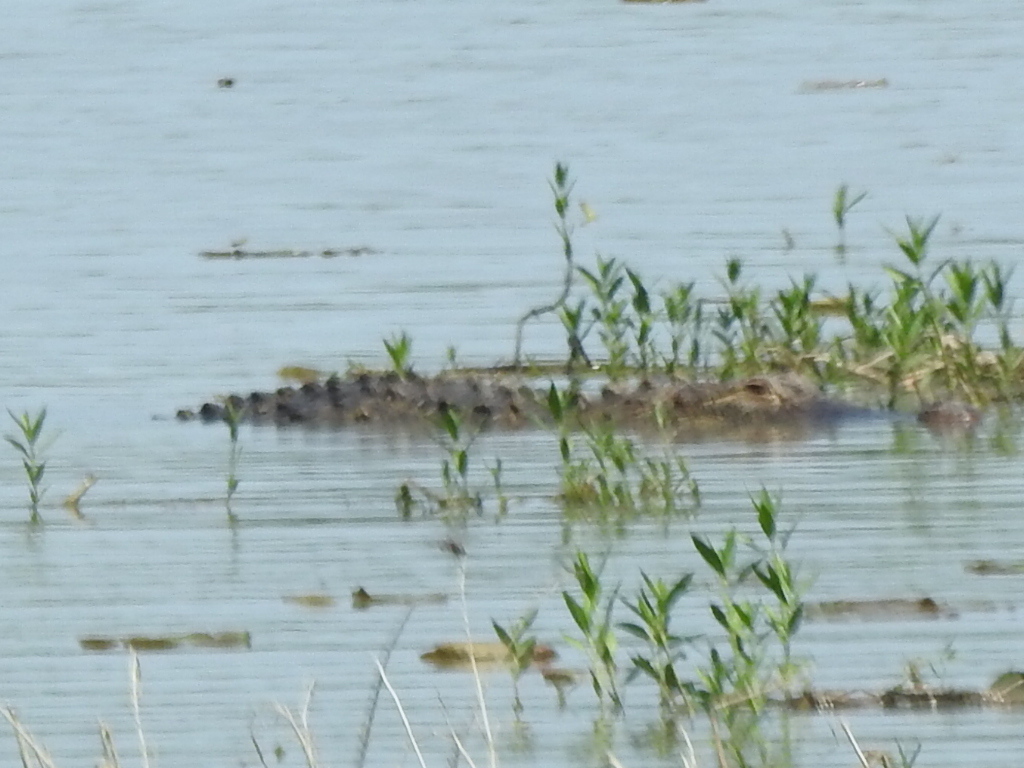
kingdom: Animalia
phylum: Chordata
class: Crocodylia
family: Alligatoridae
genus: Alligator
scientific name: Alligator mississippiensis
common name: American alligator
